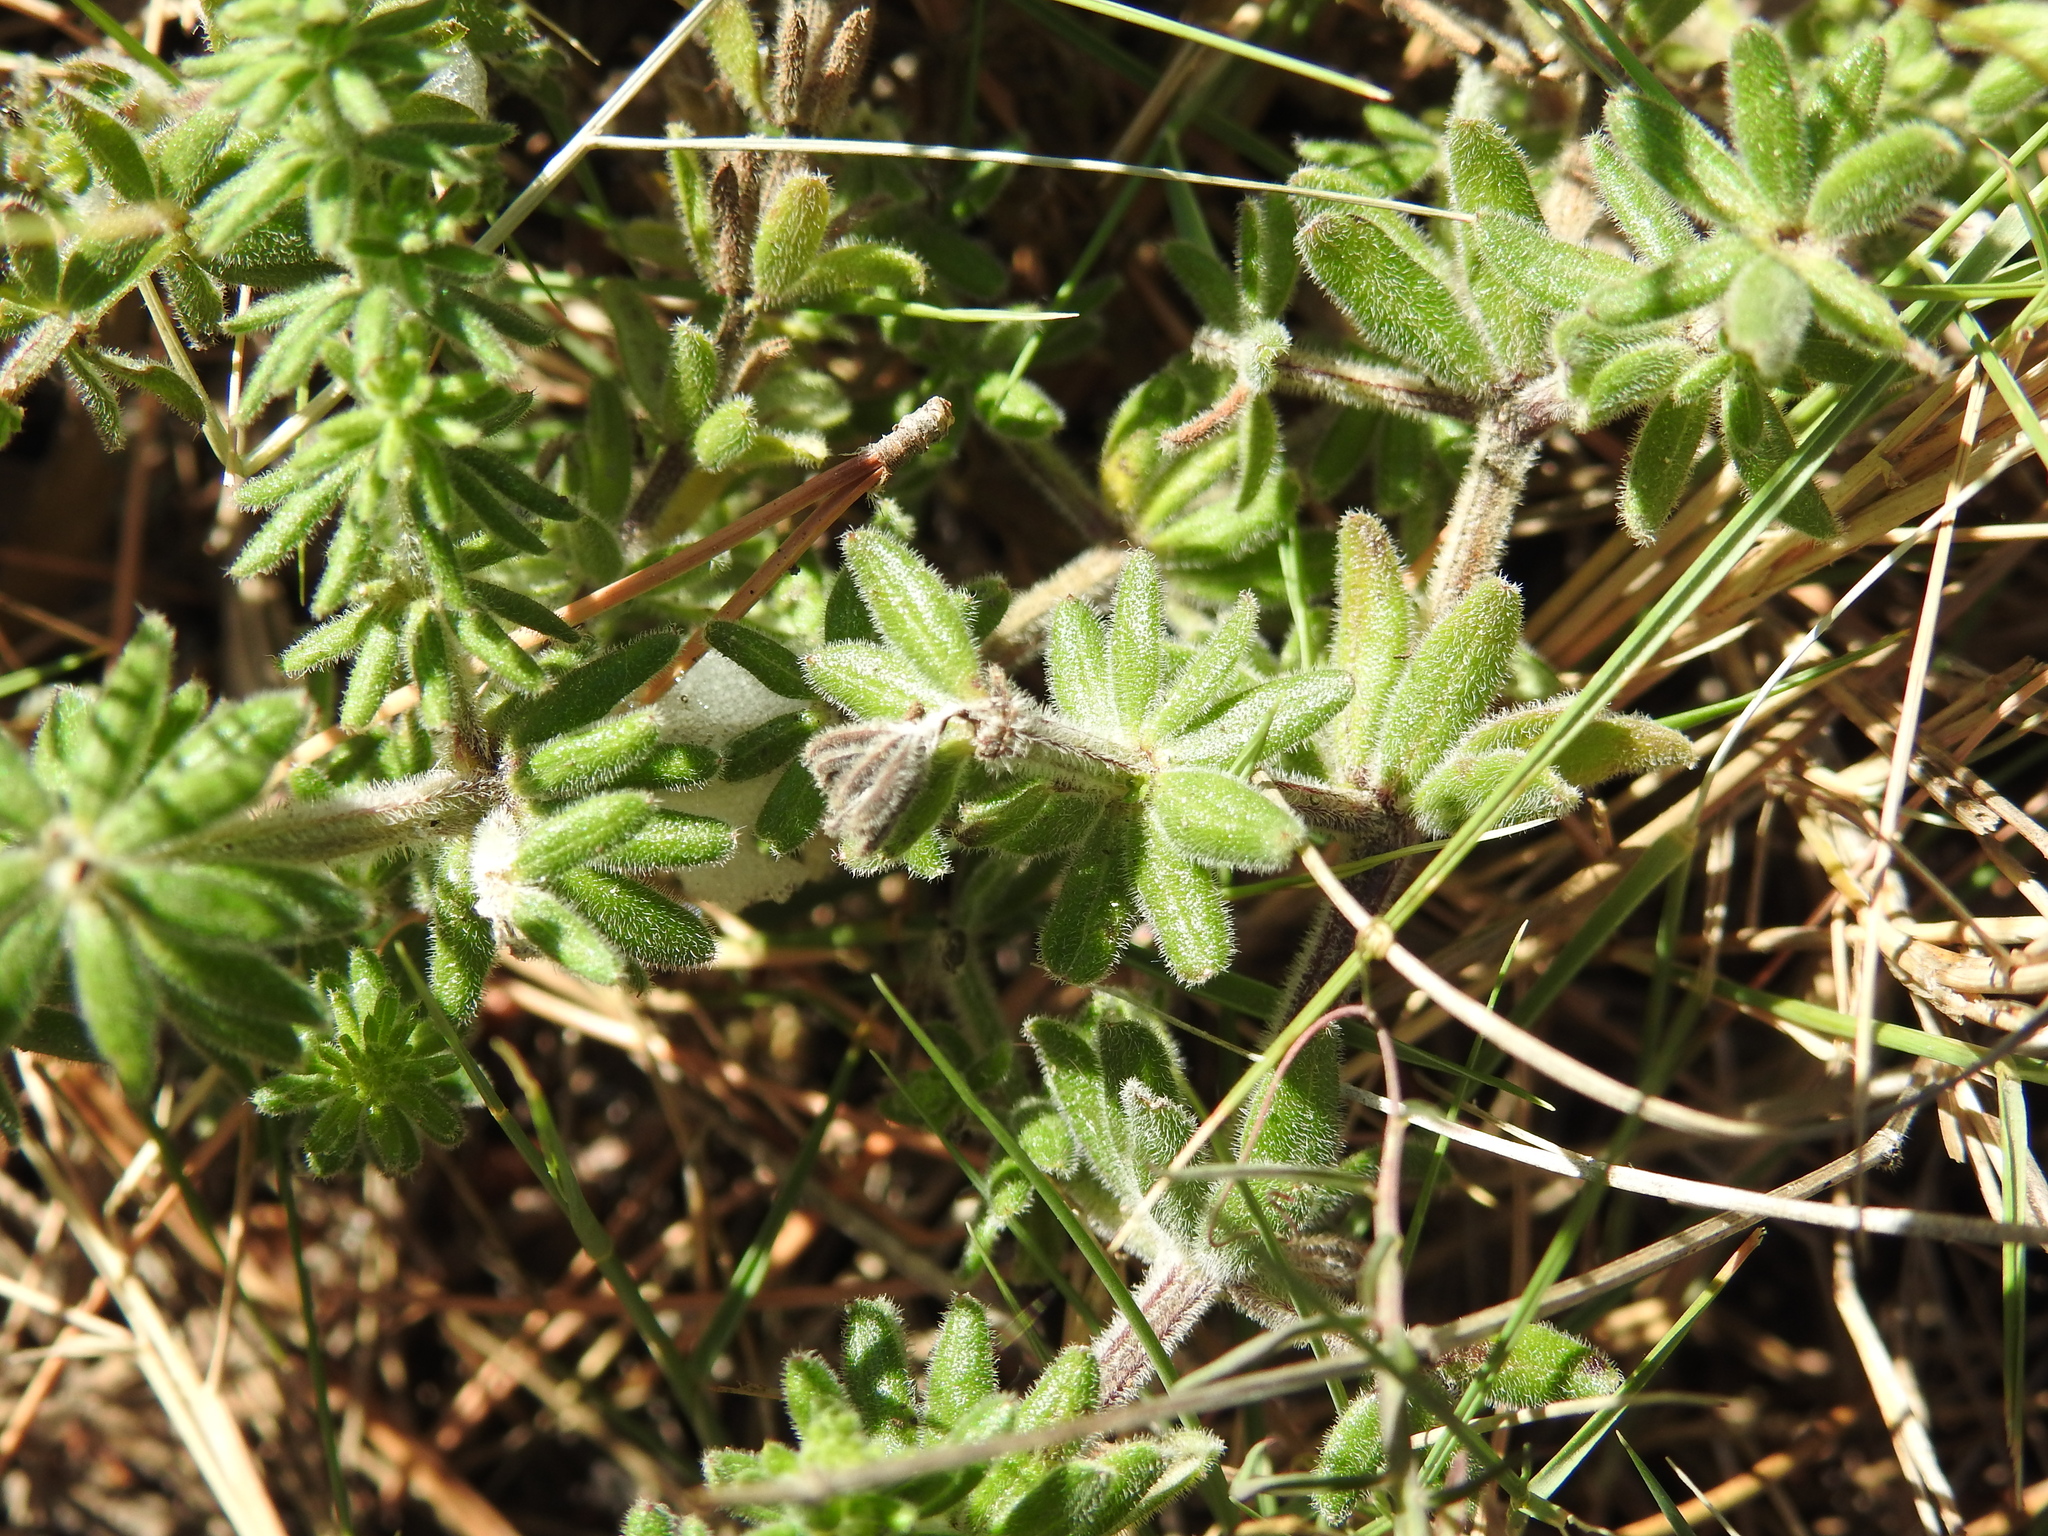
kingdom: Plantae
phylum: Tracheophyta
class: Magnoliopsida
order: Gentianales
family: Rubiaceae
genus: Galium
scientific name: Galium maritimum
